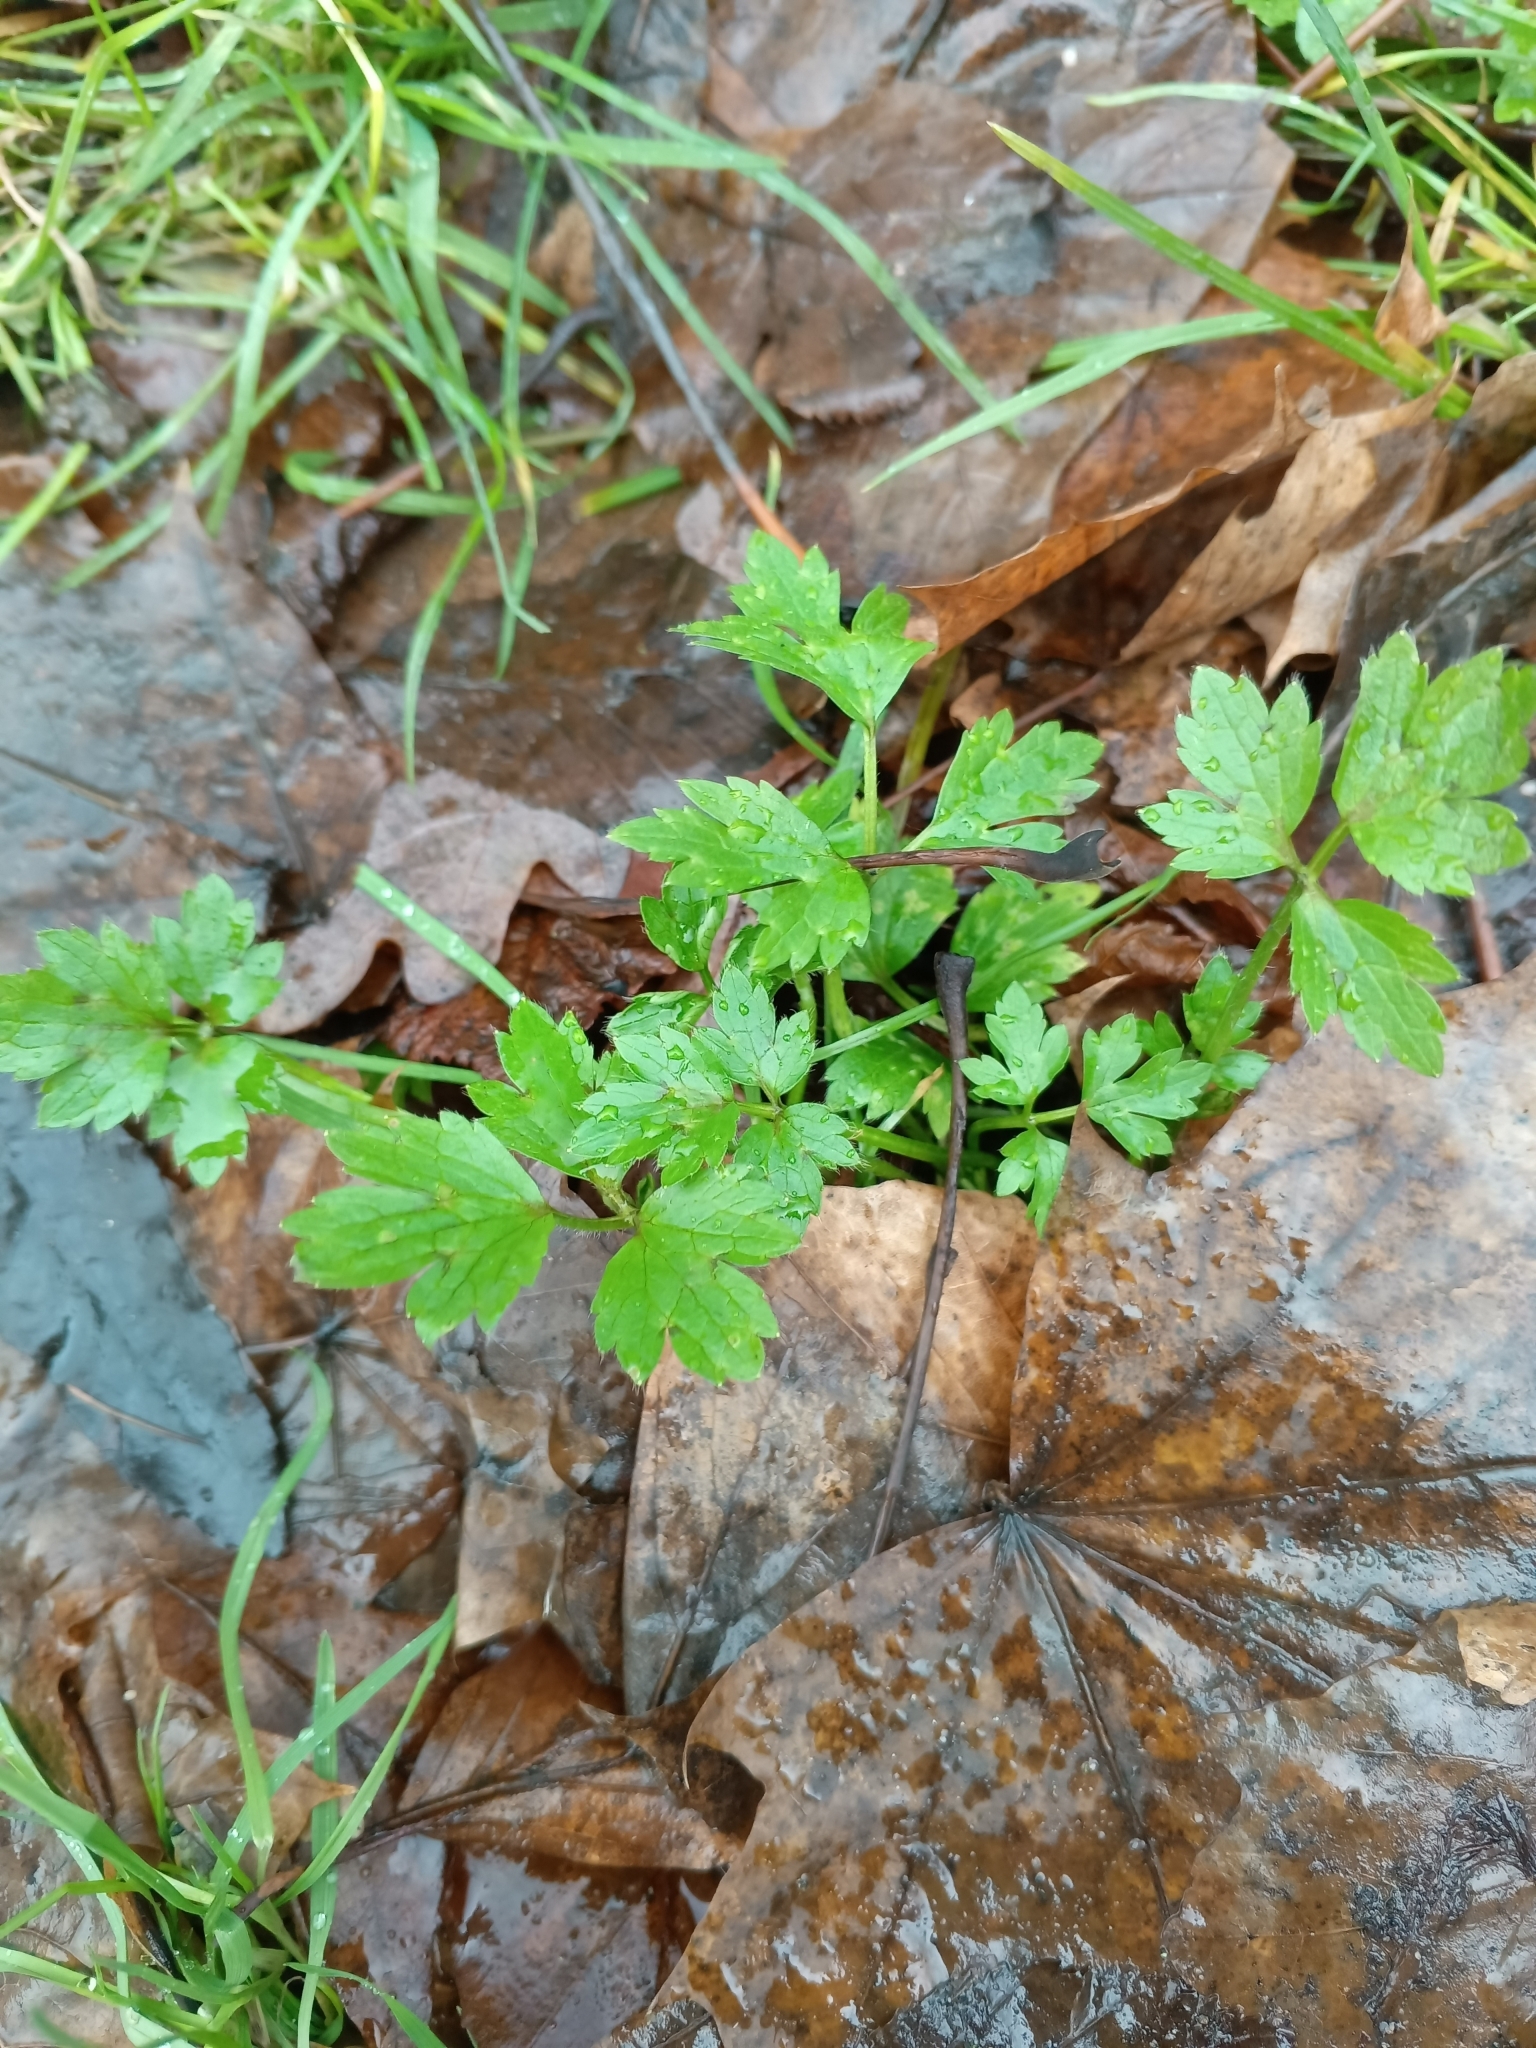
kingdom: Plantae
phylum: Tracheophyta
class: Magnoliopsida
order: Ranunculales
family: Ranunculaceae
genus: Ranunculus
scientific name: Ranunculus repens
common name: Creeping buttercup
